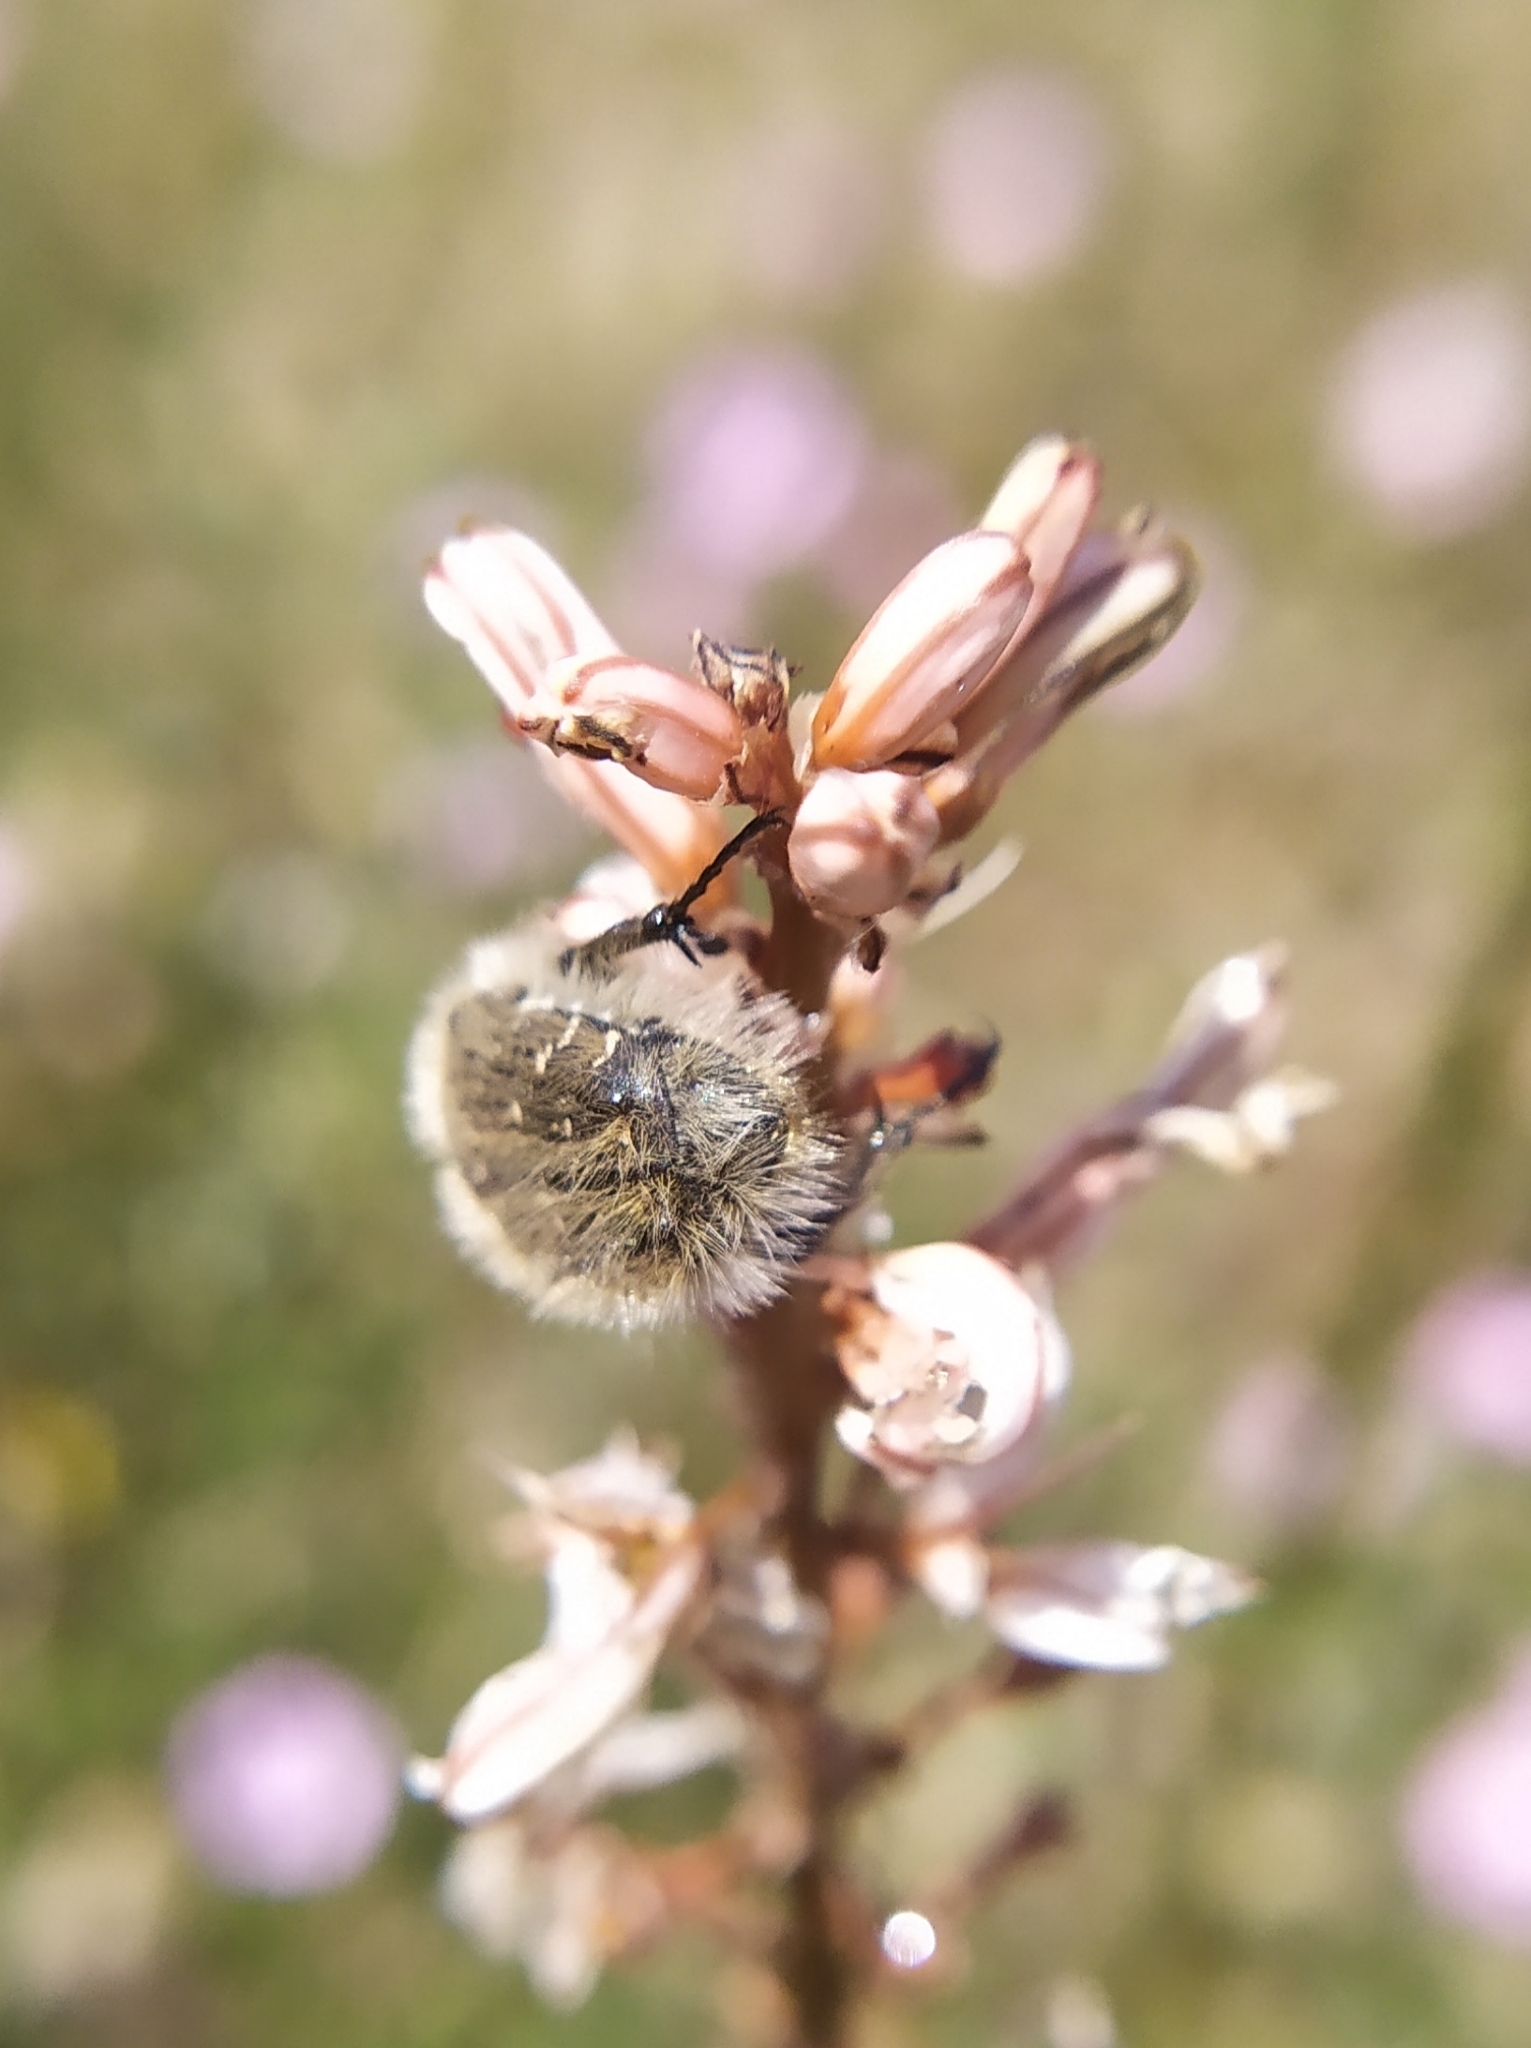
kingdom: Animalia
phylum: Arthropoda
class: Insecta
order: Coleoptera
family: Scarabaeidae
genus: Tropinota
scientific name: Tropinota squalida
